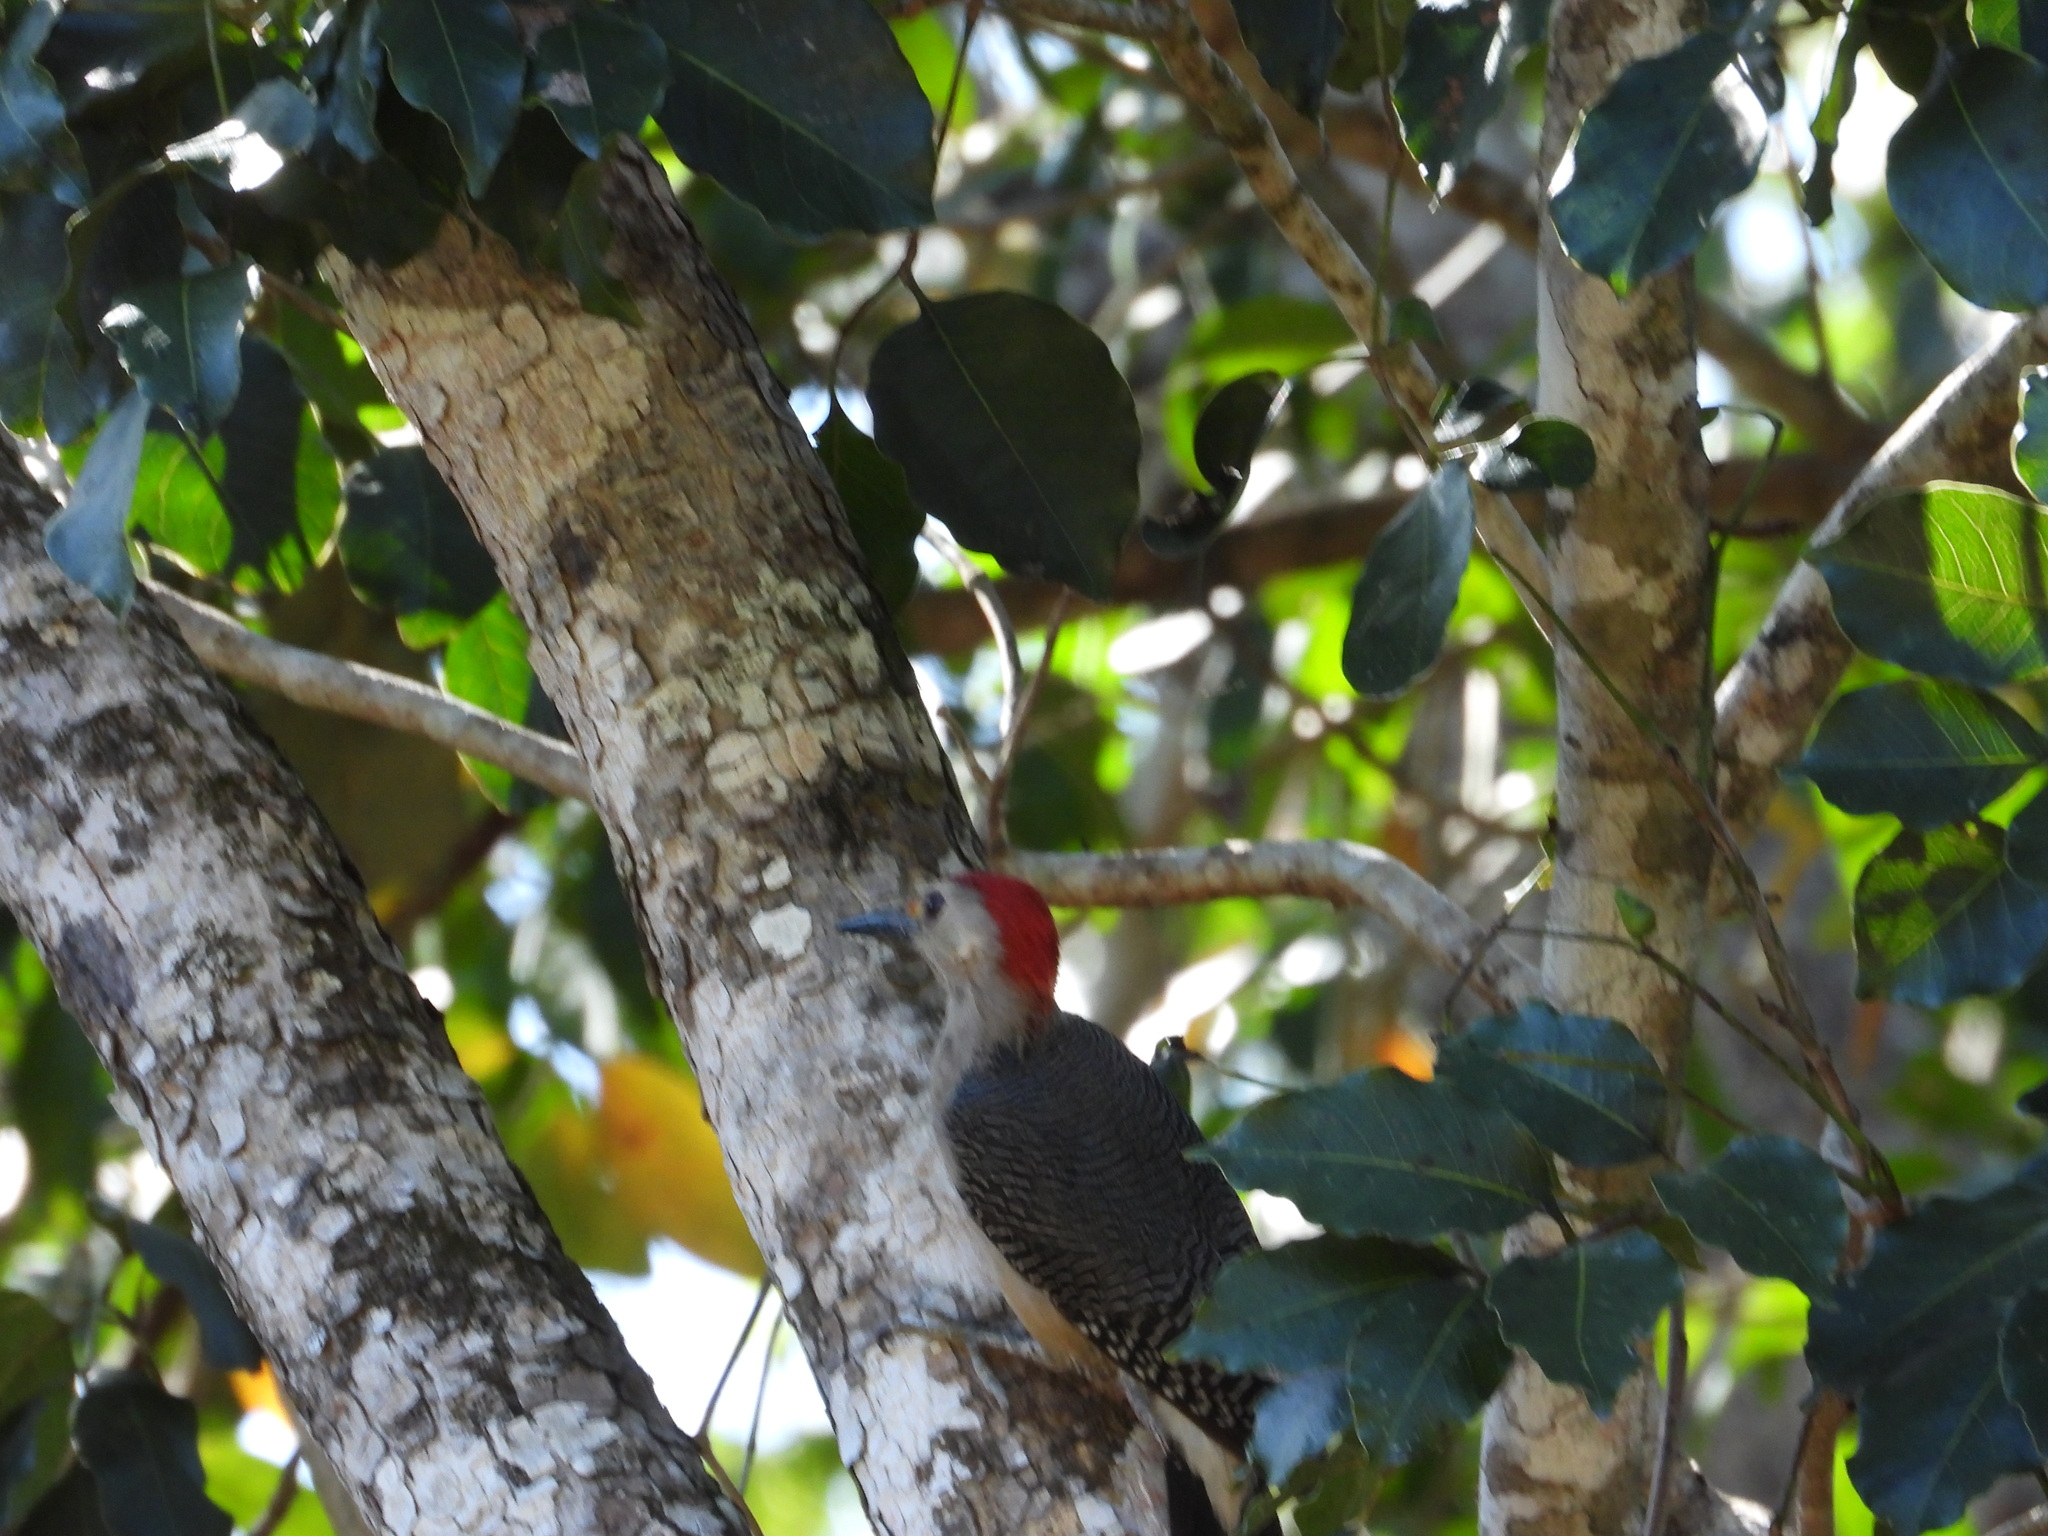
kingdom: Animalia
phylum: Chordata
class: Aves
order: Piciformes
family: Picidae
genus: Melanerpes
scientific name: Melanerpes aurifrons
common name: Golden-fronted woodpecker
